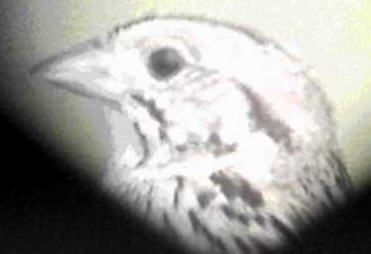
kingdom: Animalia
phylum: Chordata
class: Aves
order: Passeriformes
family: Passerellidae
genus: Centronyx
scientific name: Centronyx henslowii
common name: Henslow's sparrow
